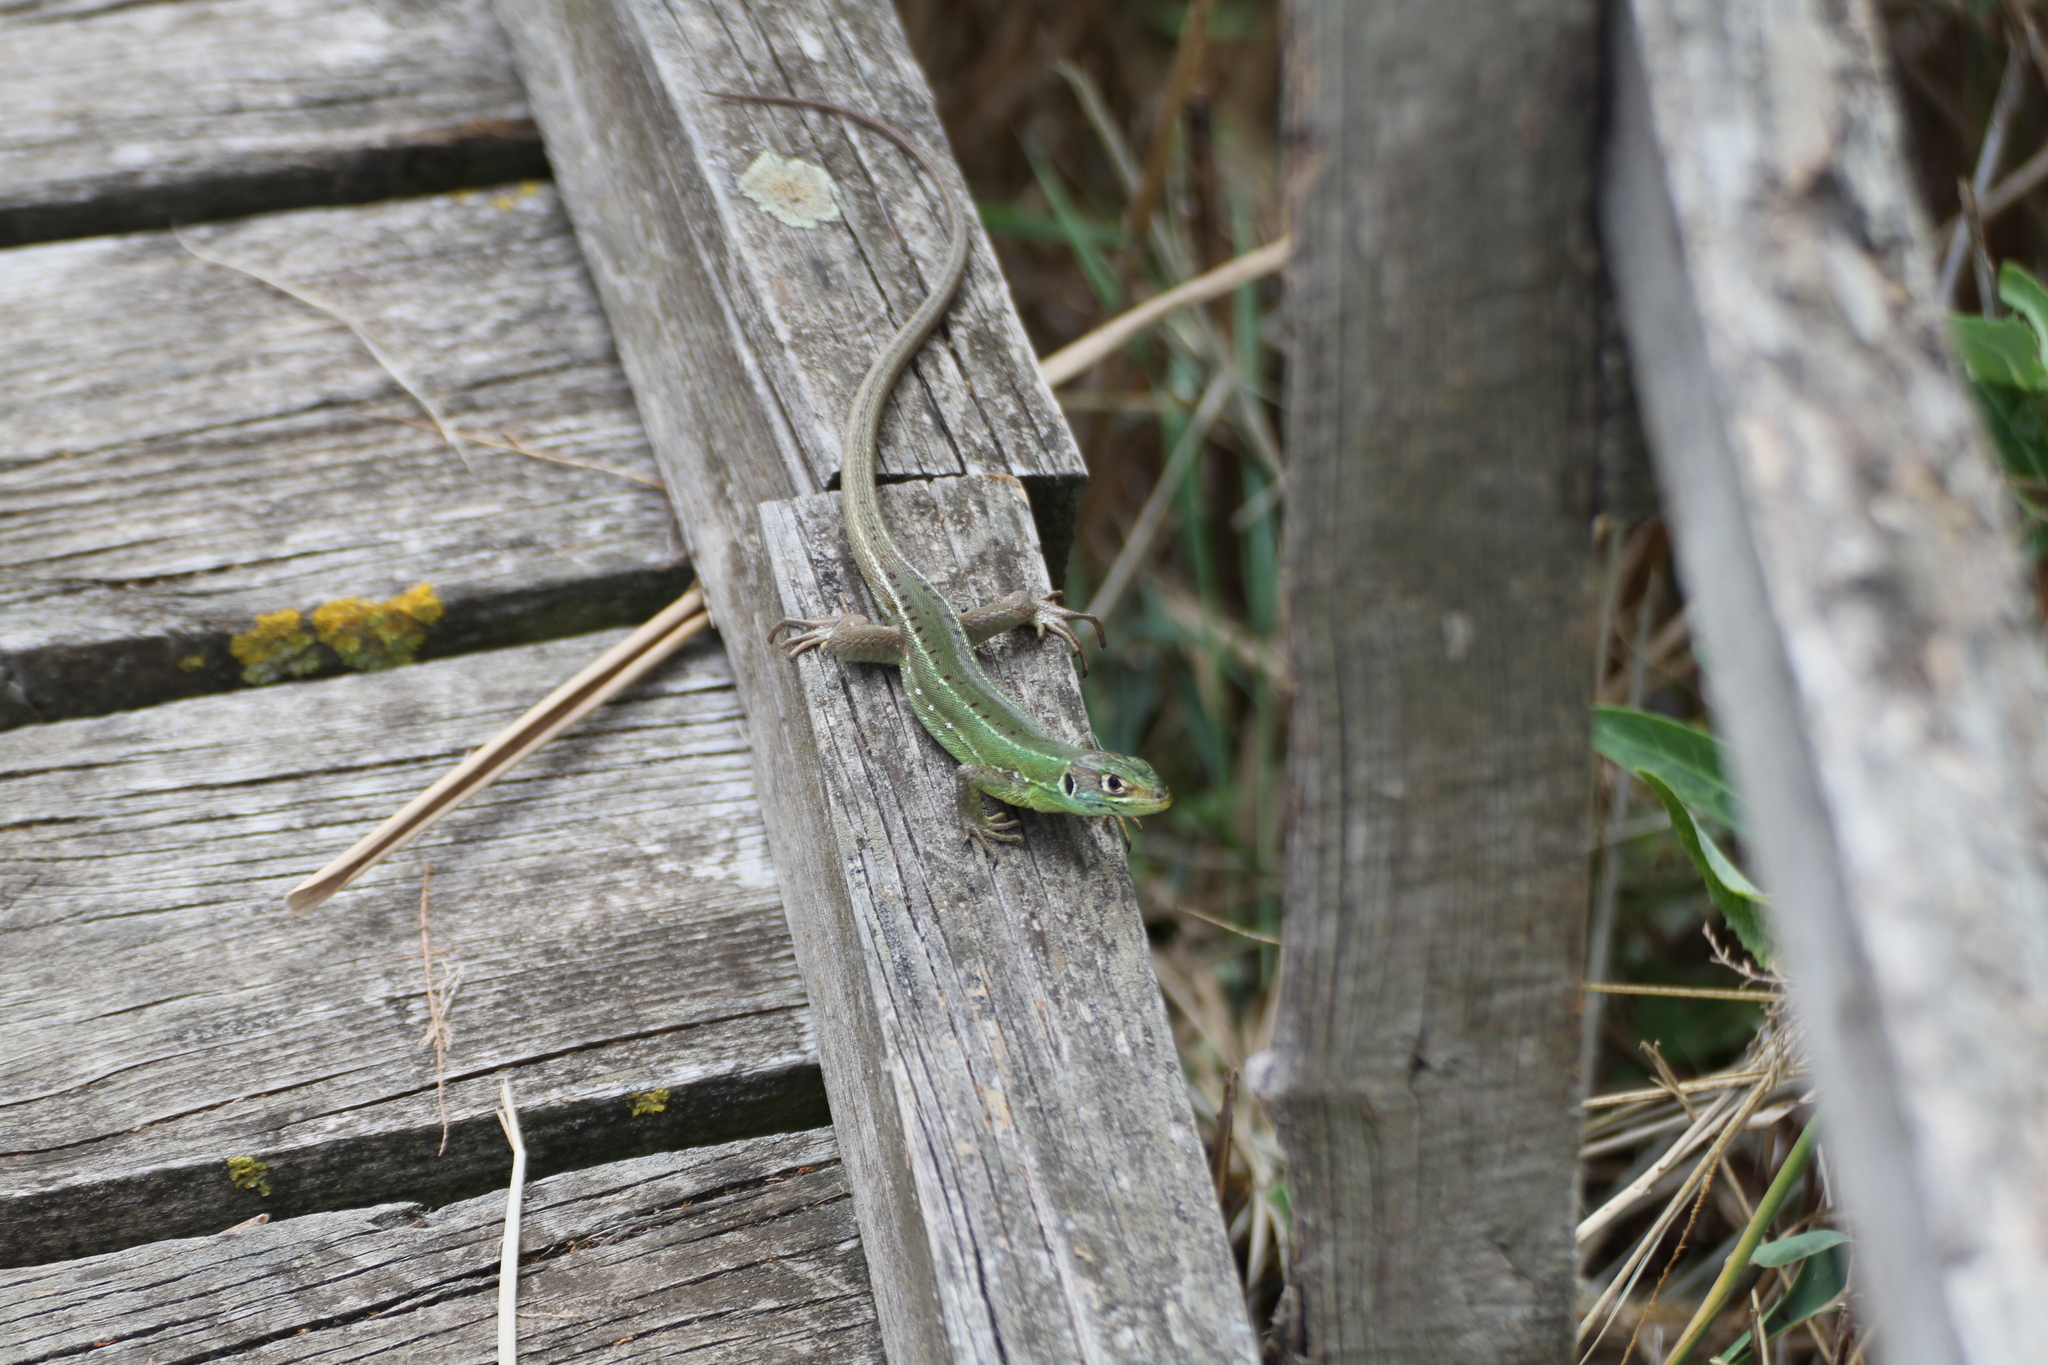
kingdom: Animalia
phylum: Chordata
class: Squamata
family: Lacertidae
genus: Lacerta
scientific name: Lacerta bilineata
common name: Western green lizard
